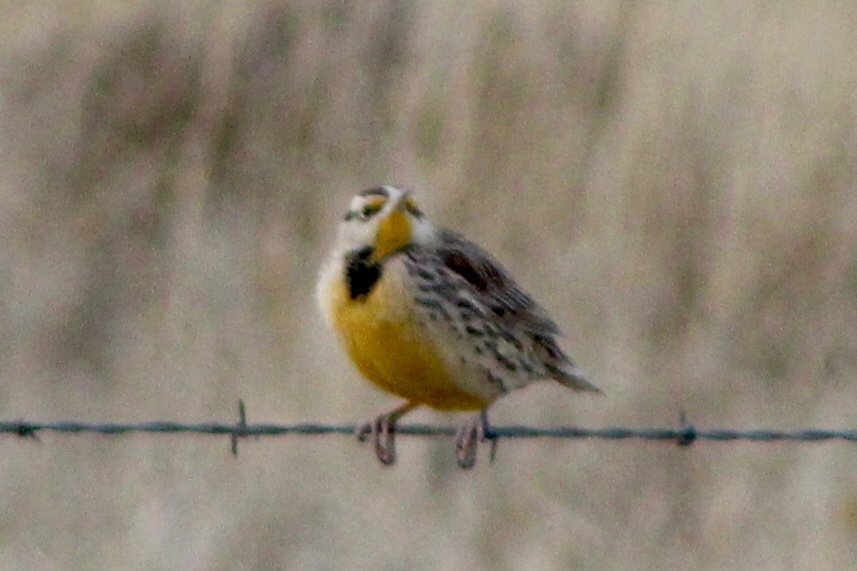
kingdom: Animalia
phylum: Chordata
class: Aves
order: Passeriformes
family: Icteridae
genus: Sturnella
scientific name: Sturnella neglecta
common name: Western meadowlark
